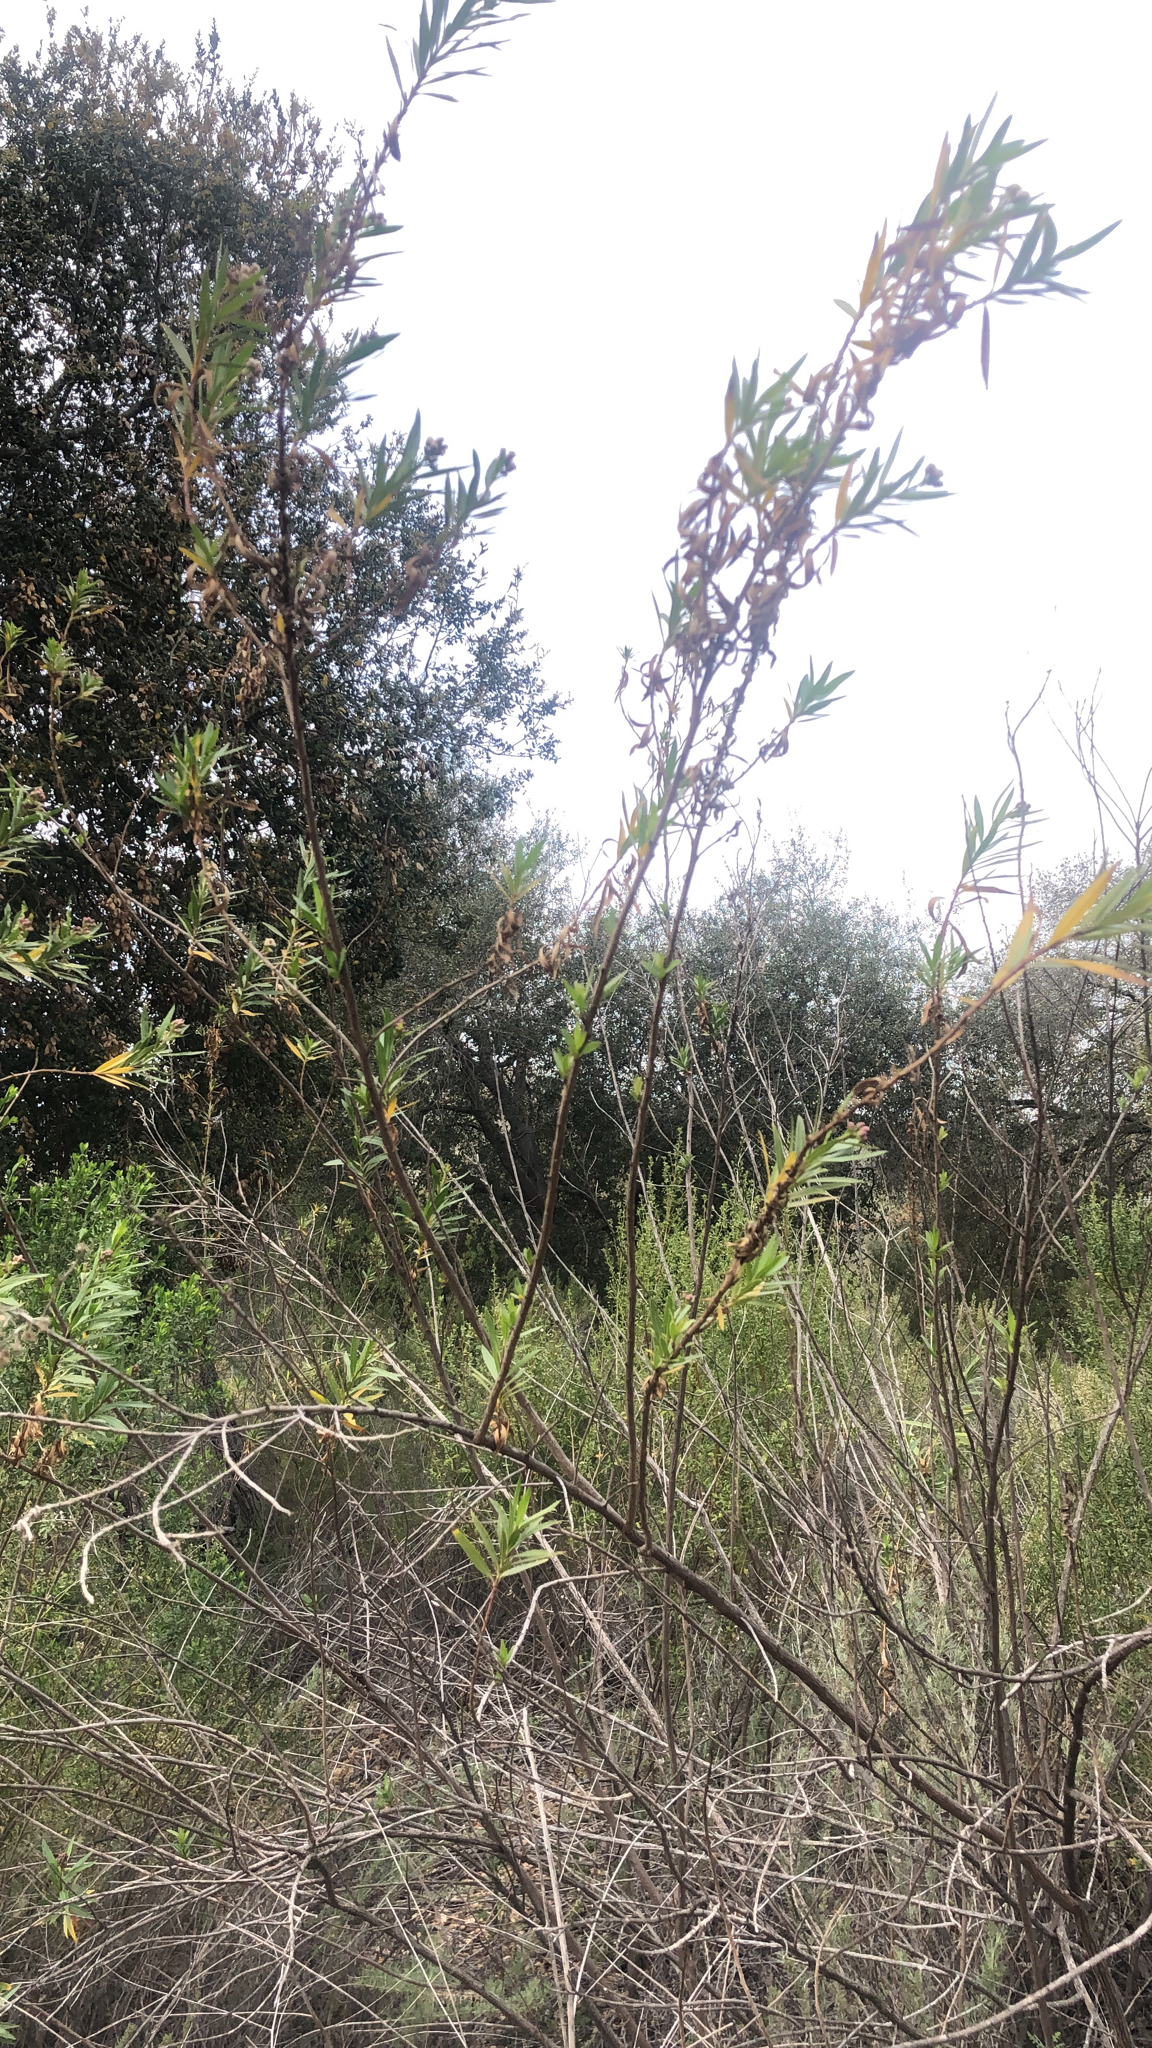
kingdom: Plantae
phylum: Tracheophyta
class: Magnoliopsida
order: Asterales
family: Asteraceae
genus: Baccharis
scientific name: Baccharis salicifolia
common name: Sticky baccharis
